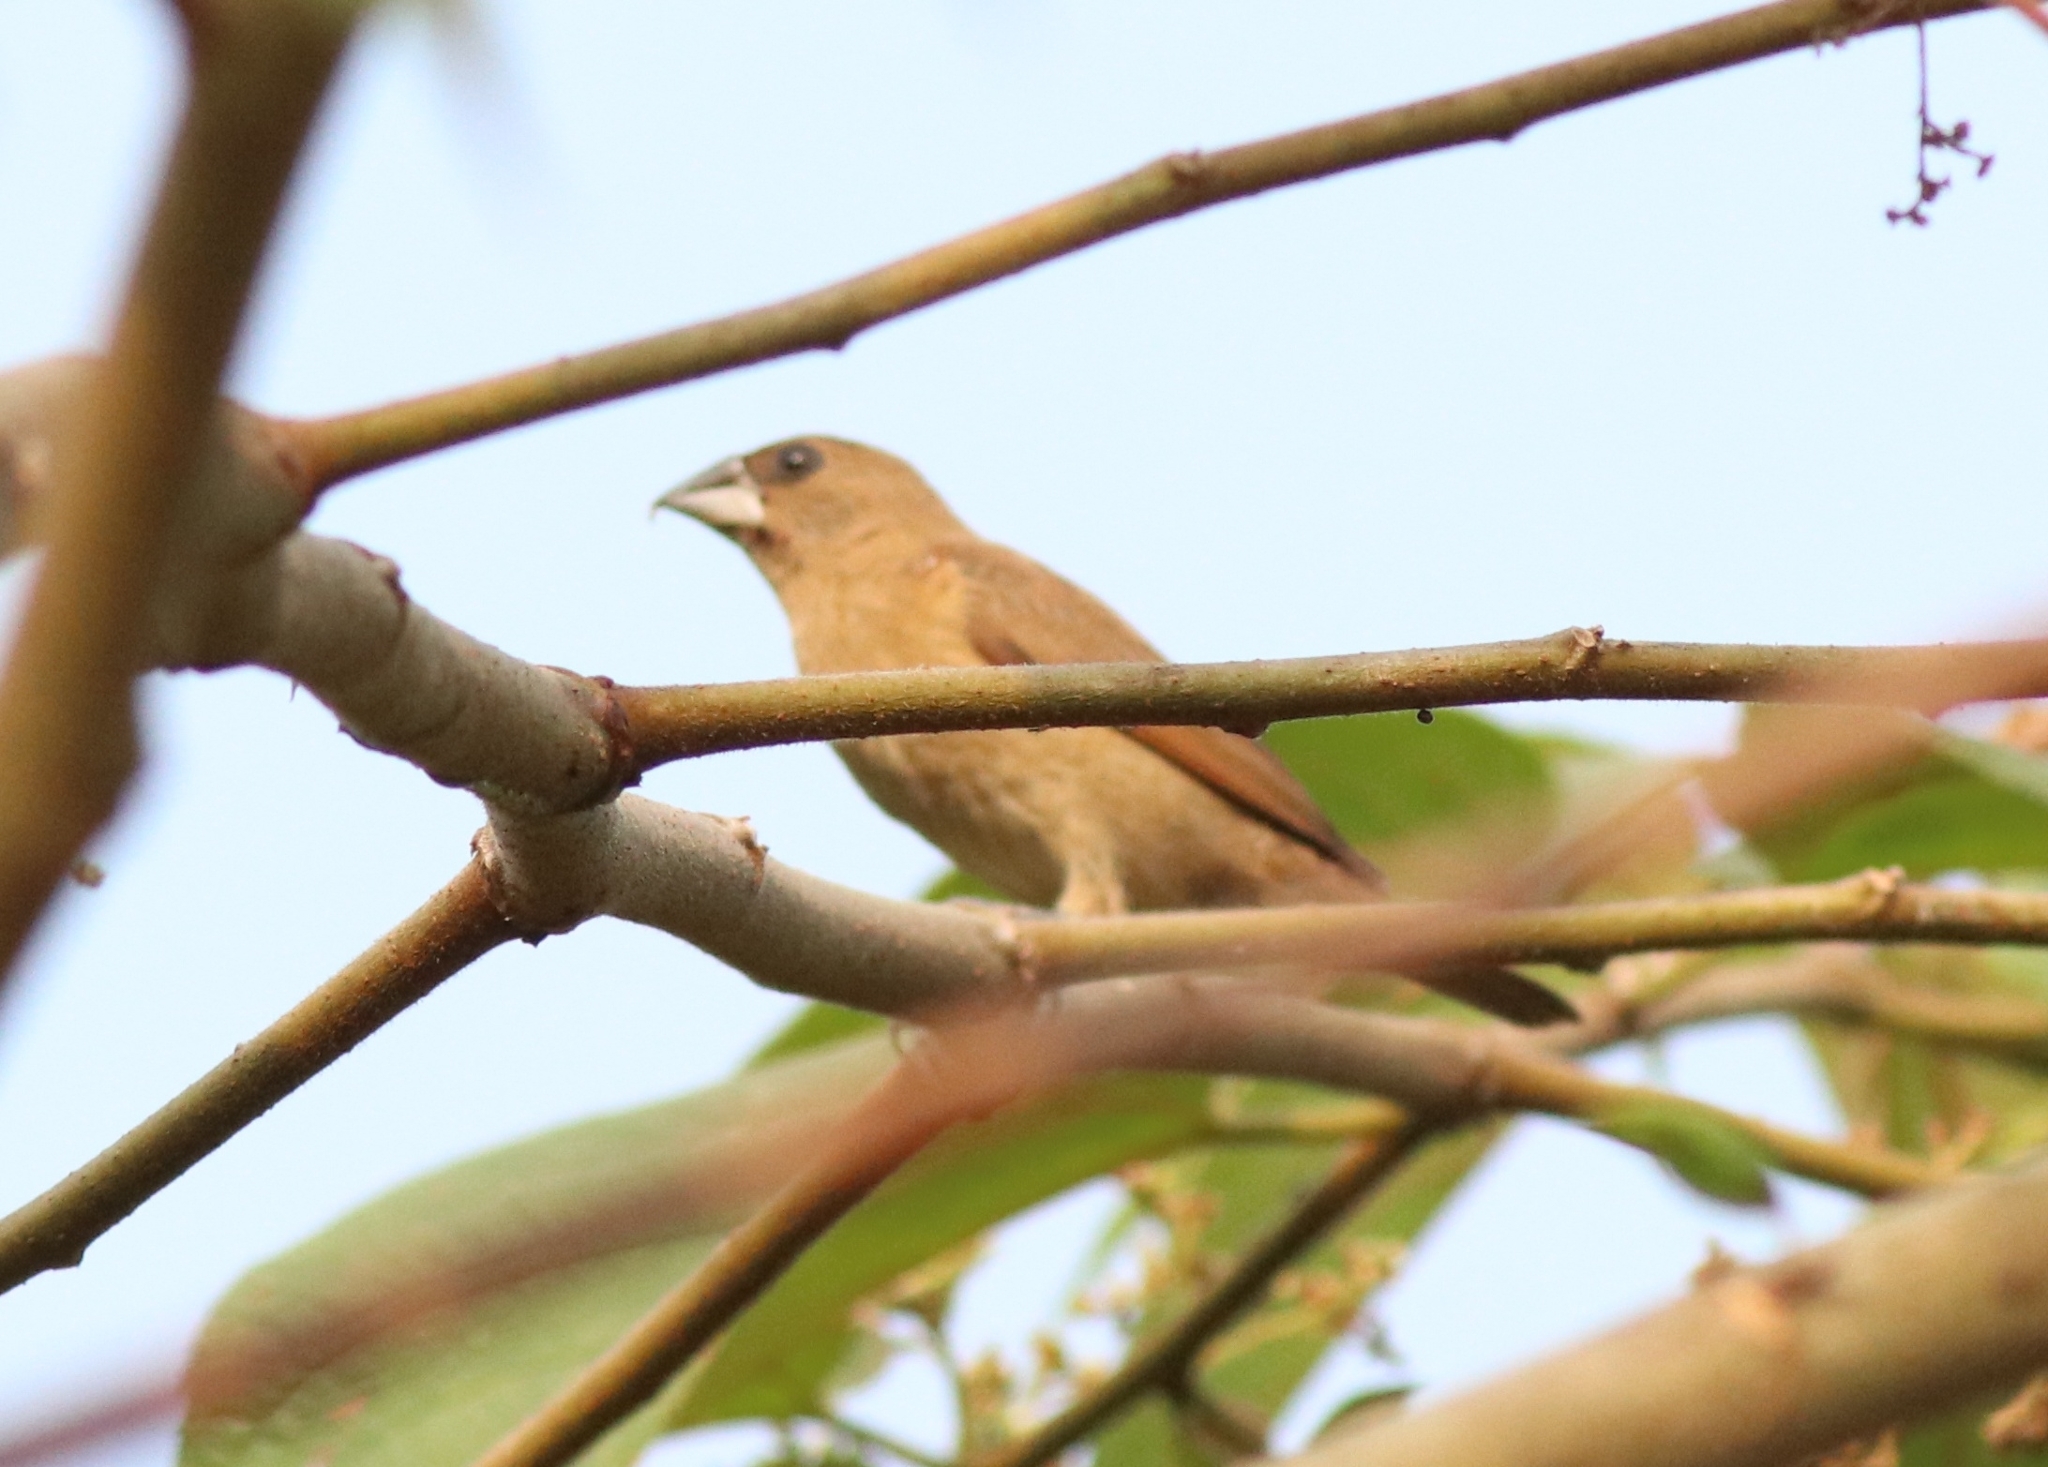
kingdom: Animalia
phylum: Chordata
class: Aves
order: Passeriformes
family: Estrildidae
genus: Lonchura
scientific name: Lonchura punctulata
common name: Scaly-breasted munia
